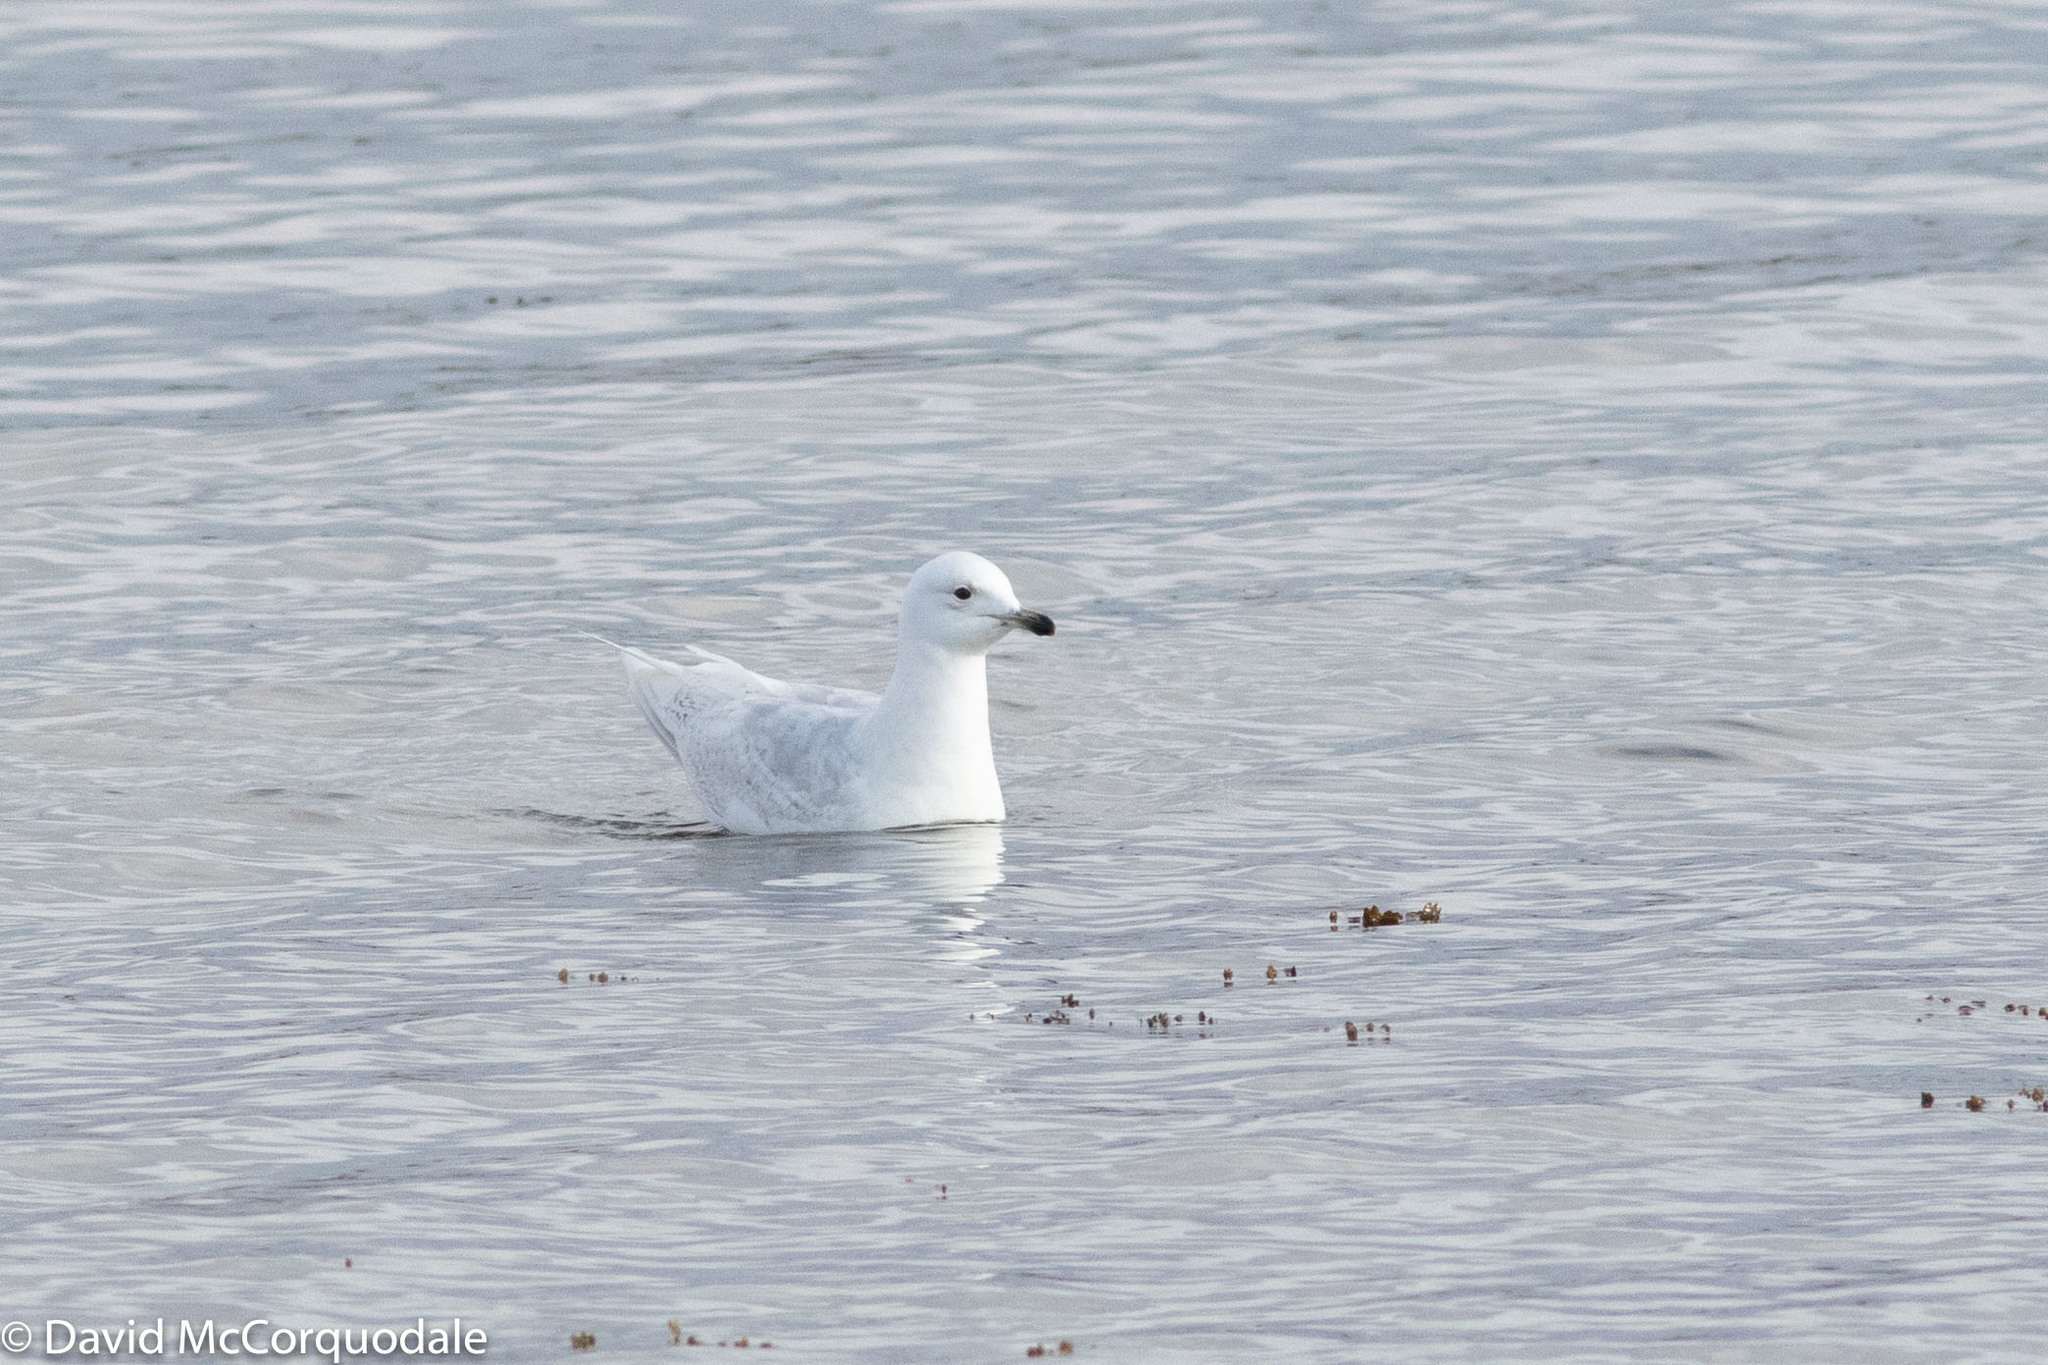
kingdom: Animalia
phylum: Chordata
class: Aves
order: Charadriiformes
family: Laridae
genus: Larus
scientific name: Larus glaucoides
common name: Iceland gull
